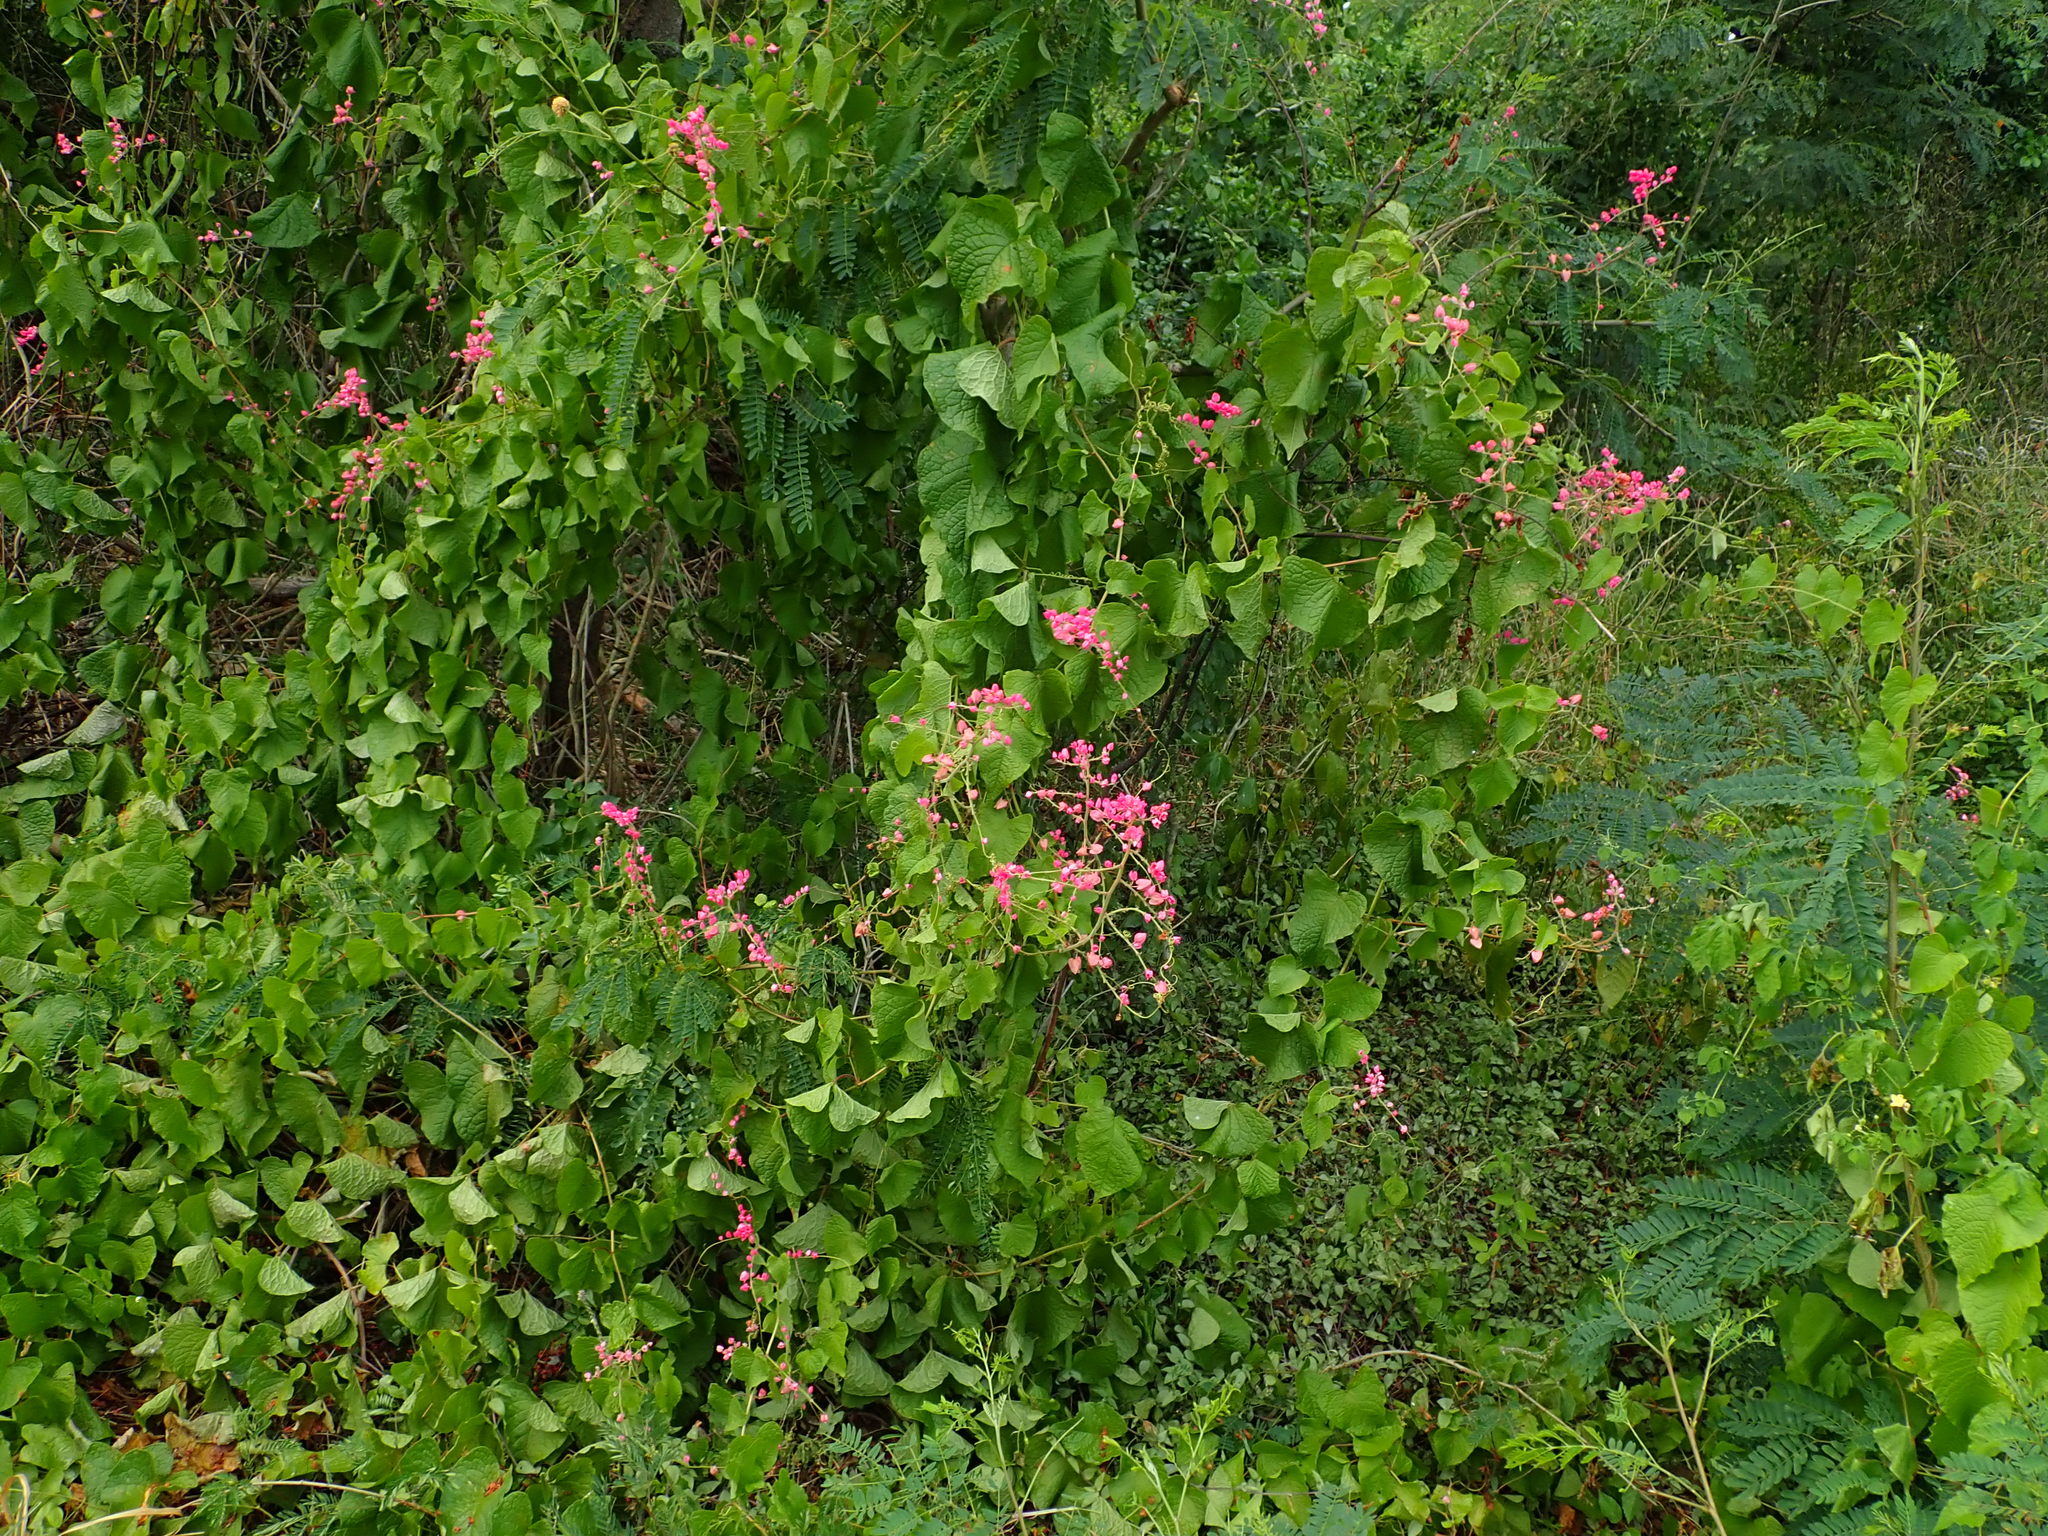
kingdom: Plantae
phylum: Tracheophyta
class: Magnoliopsida
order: Caryophyllales
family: Polygonaceae
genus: Antigonon
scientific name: Antigonon leptopus
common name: Coral vine
